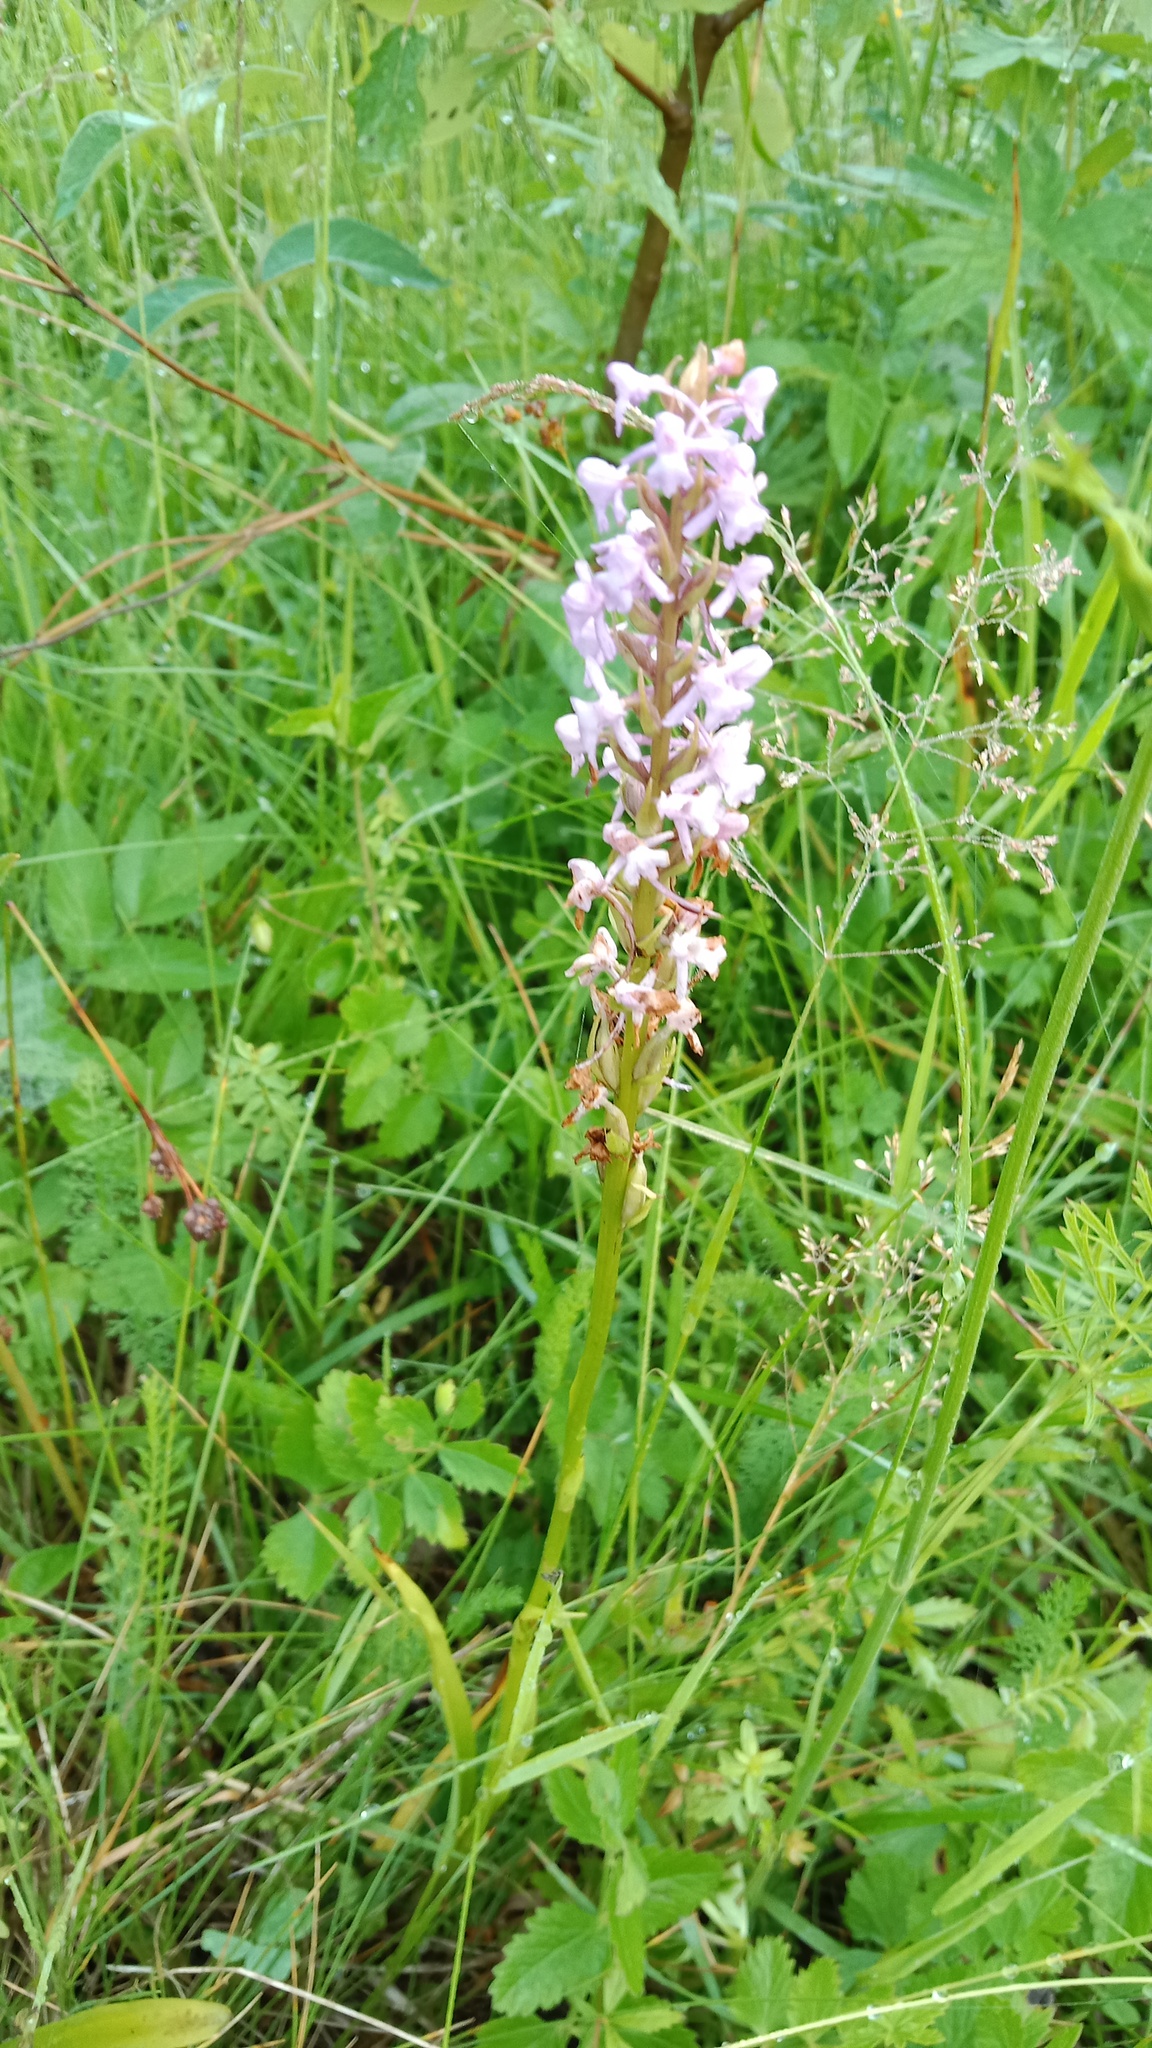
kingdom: Plantae
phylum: Tracheophyta
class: Liliopsida
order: Asparagales
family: Orchidaceae
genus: Gymnadenia
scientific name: Gymnadenia conopsea
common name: Fragrant orchid
